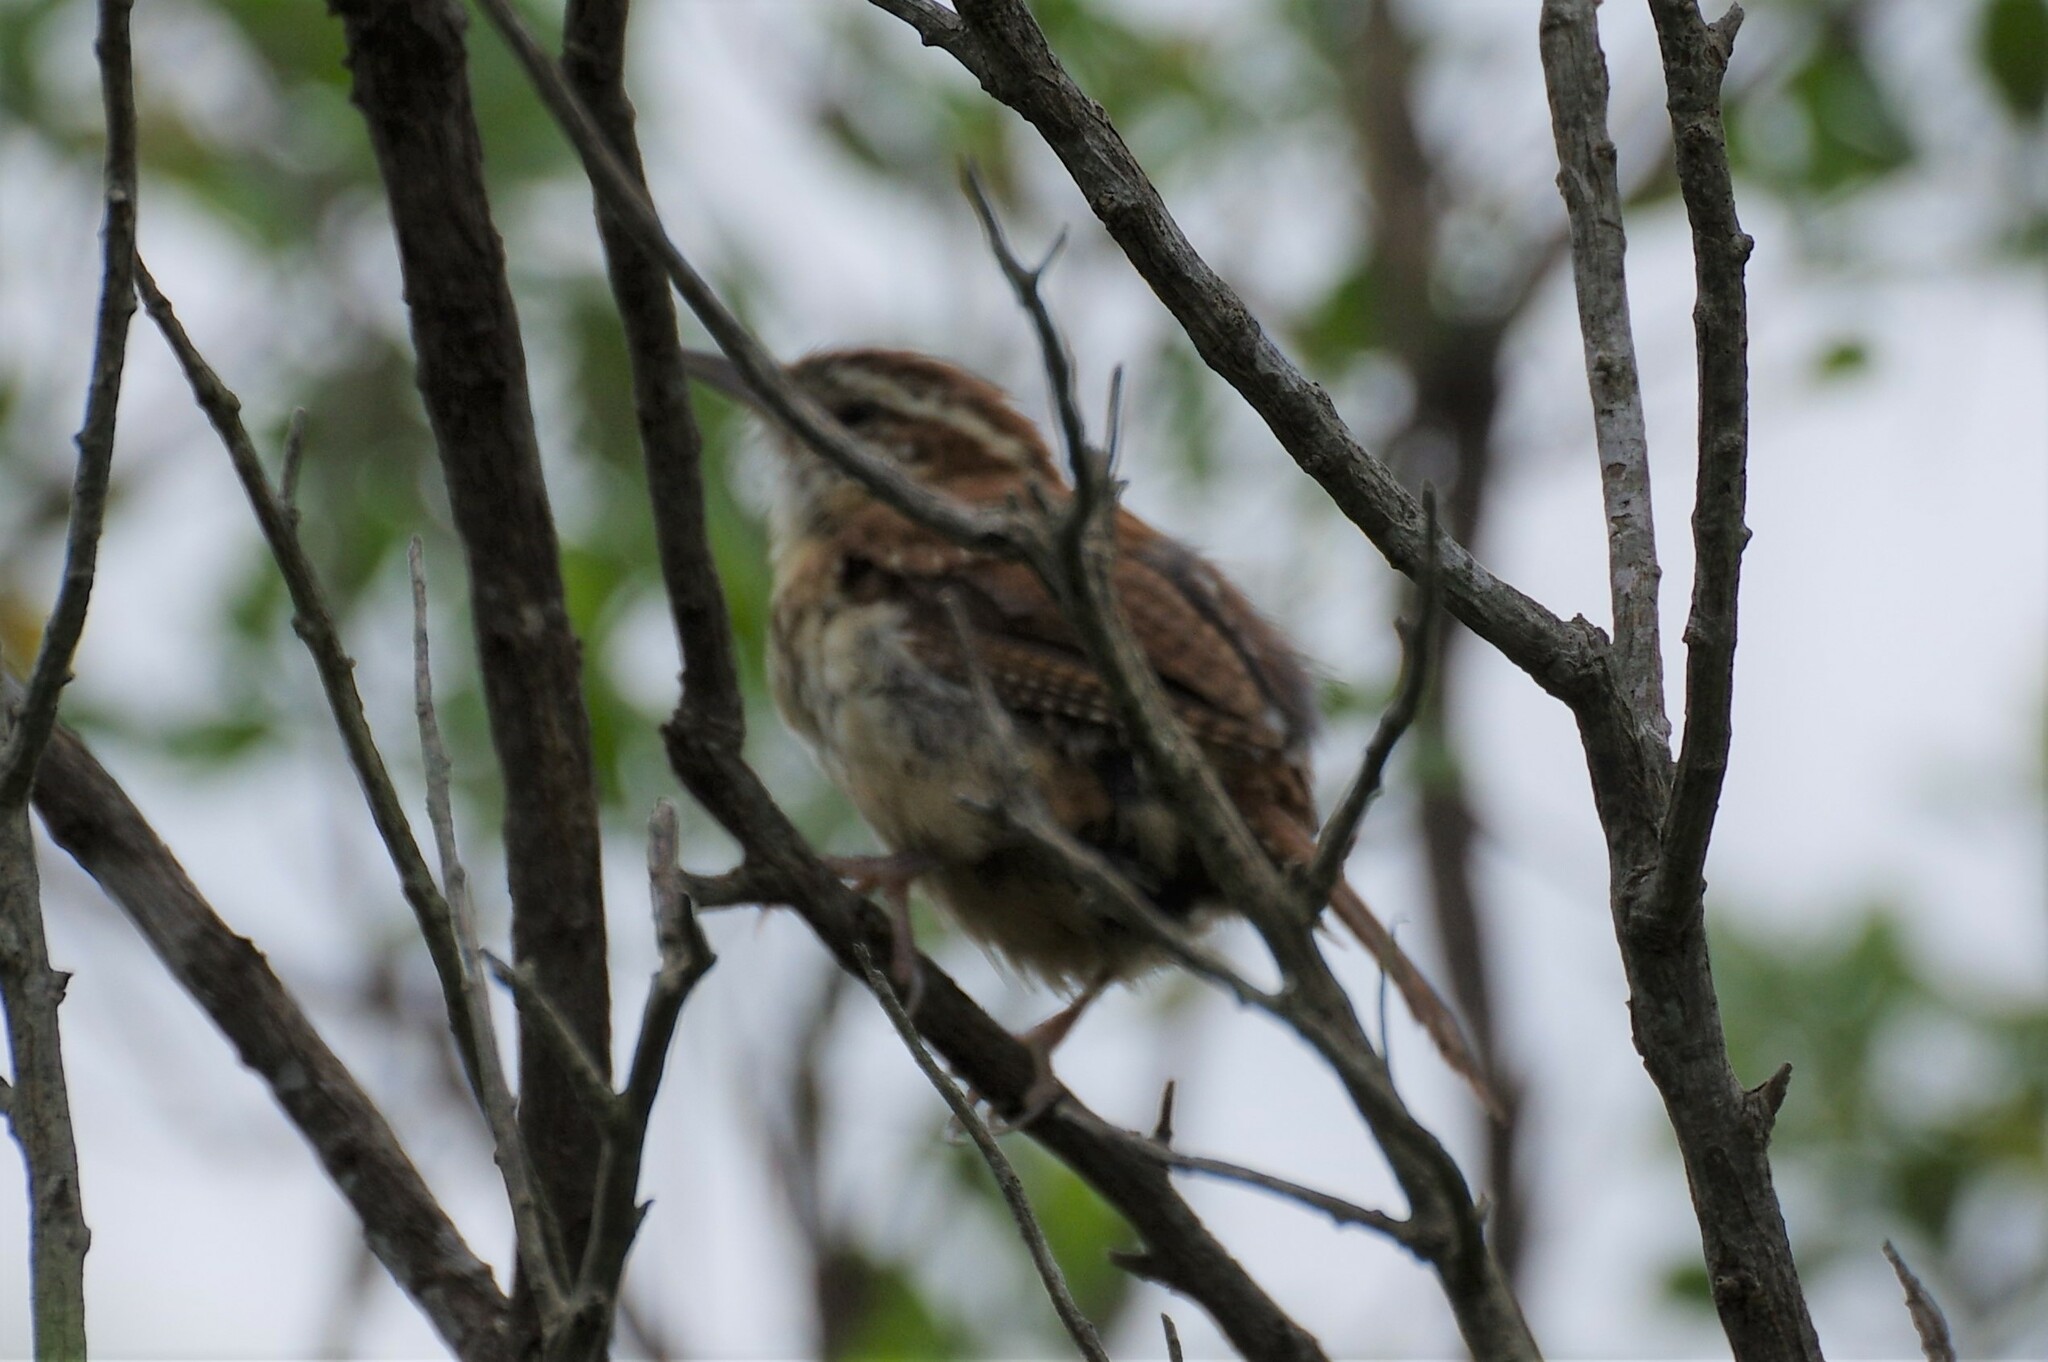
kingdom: Animalia
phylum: Chordata
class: Aves
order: Passeriformes
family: Troglodytidae
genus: Thryothorus
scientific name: Thryothorus ludovicianus
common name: Carolina wren
